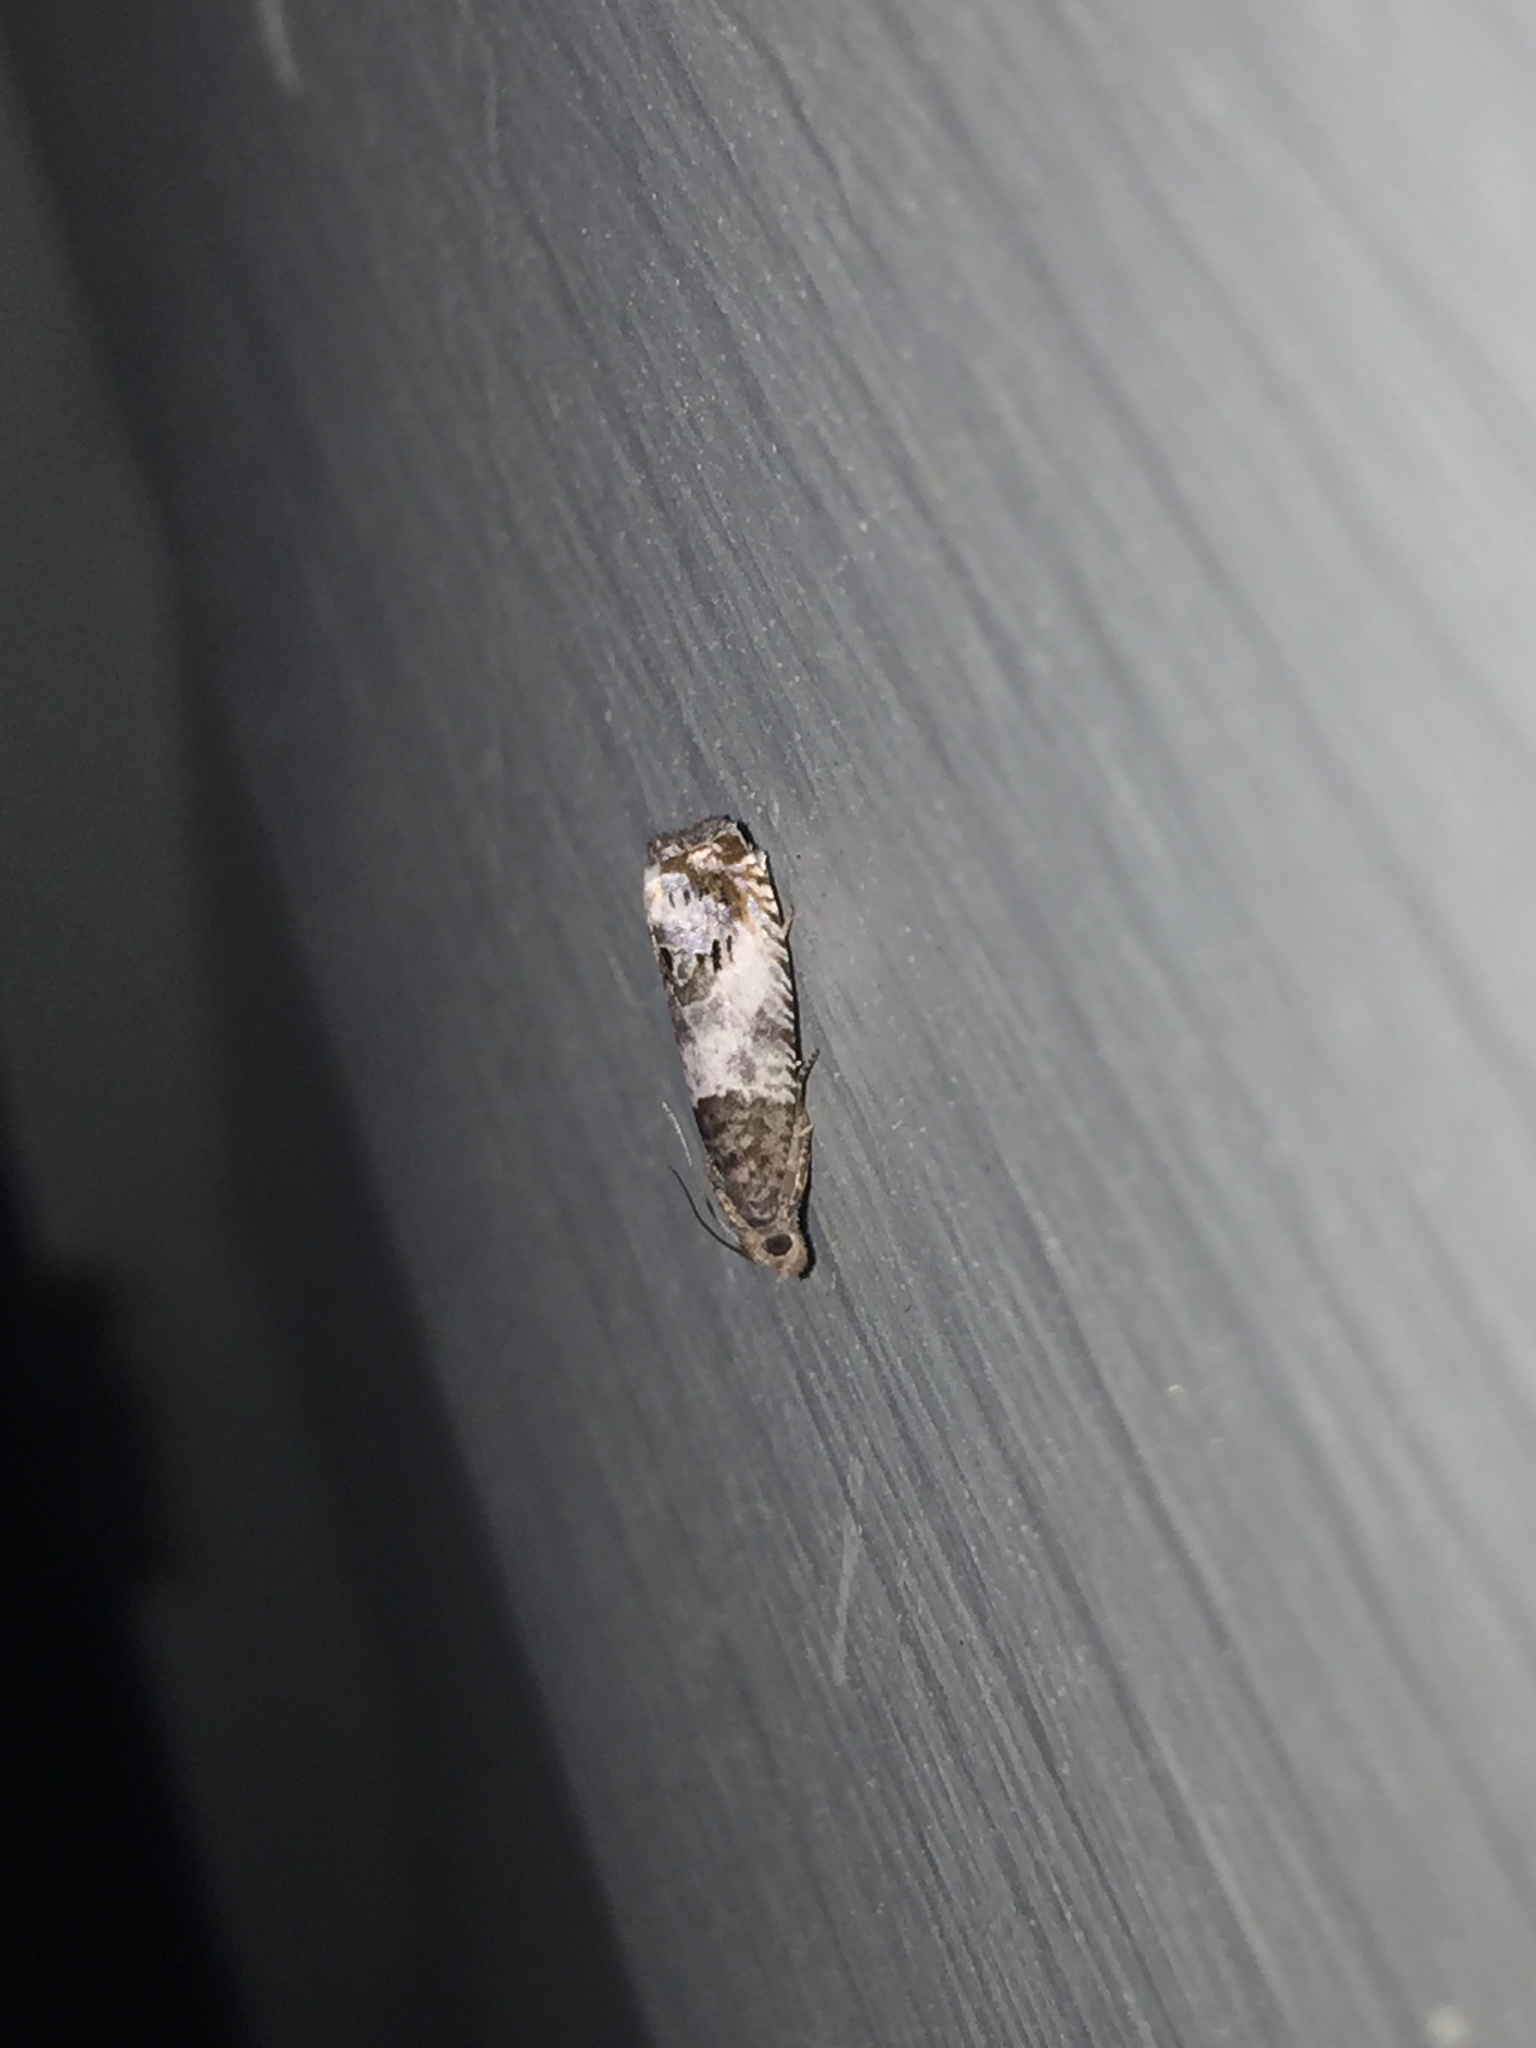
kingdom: Animalia
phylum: Arthropoda
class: Insecta
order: Lepidoptera
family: Tortricidae
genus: Notocelia
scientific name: Notocelia rosaecolana
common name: Common rose bell
